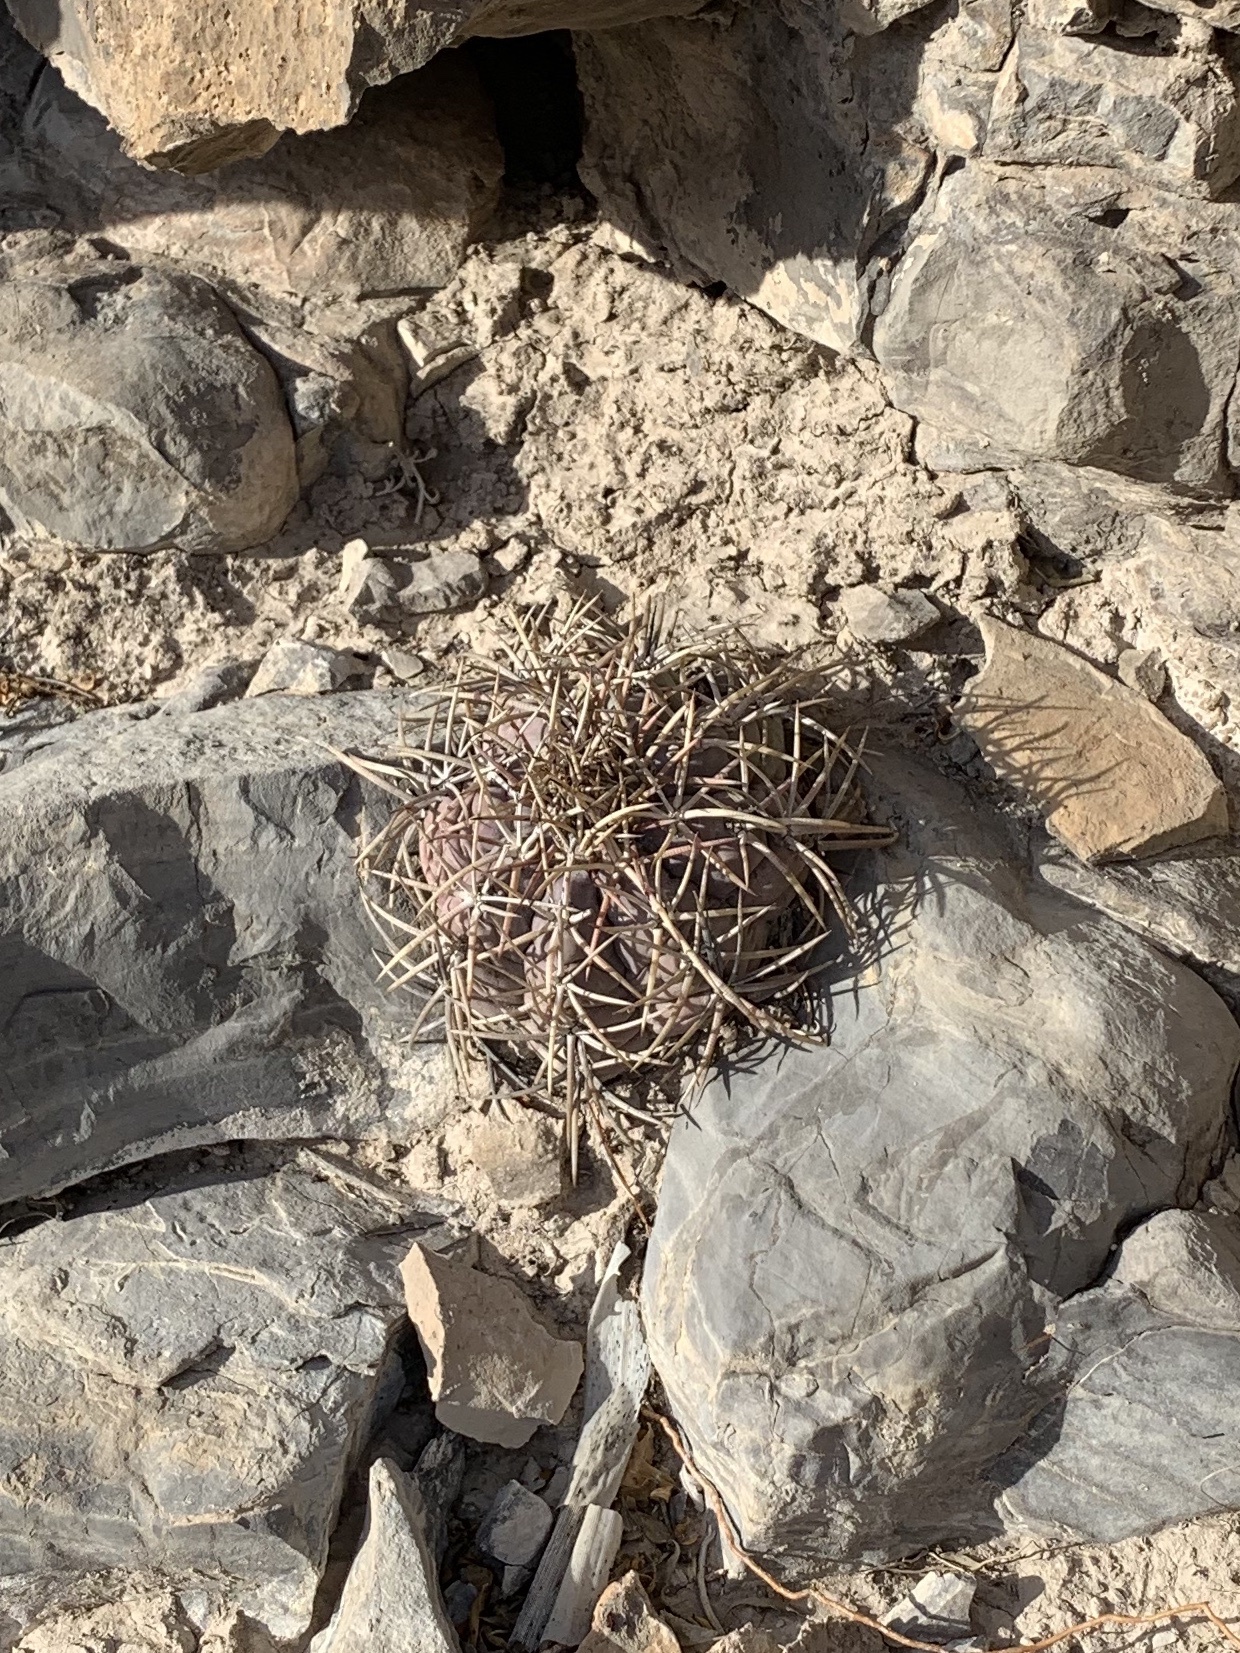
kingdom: Plantae
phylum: Tracheophyta
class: Magnoliopsida
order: Caryophyllales
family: Cactaceae
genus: Echinocactus
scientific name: Echinocactus horizonthalonius
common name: Devilshead
